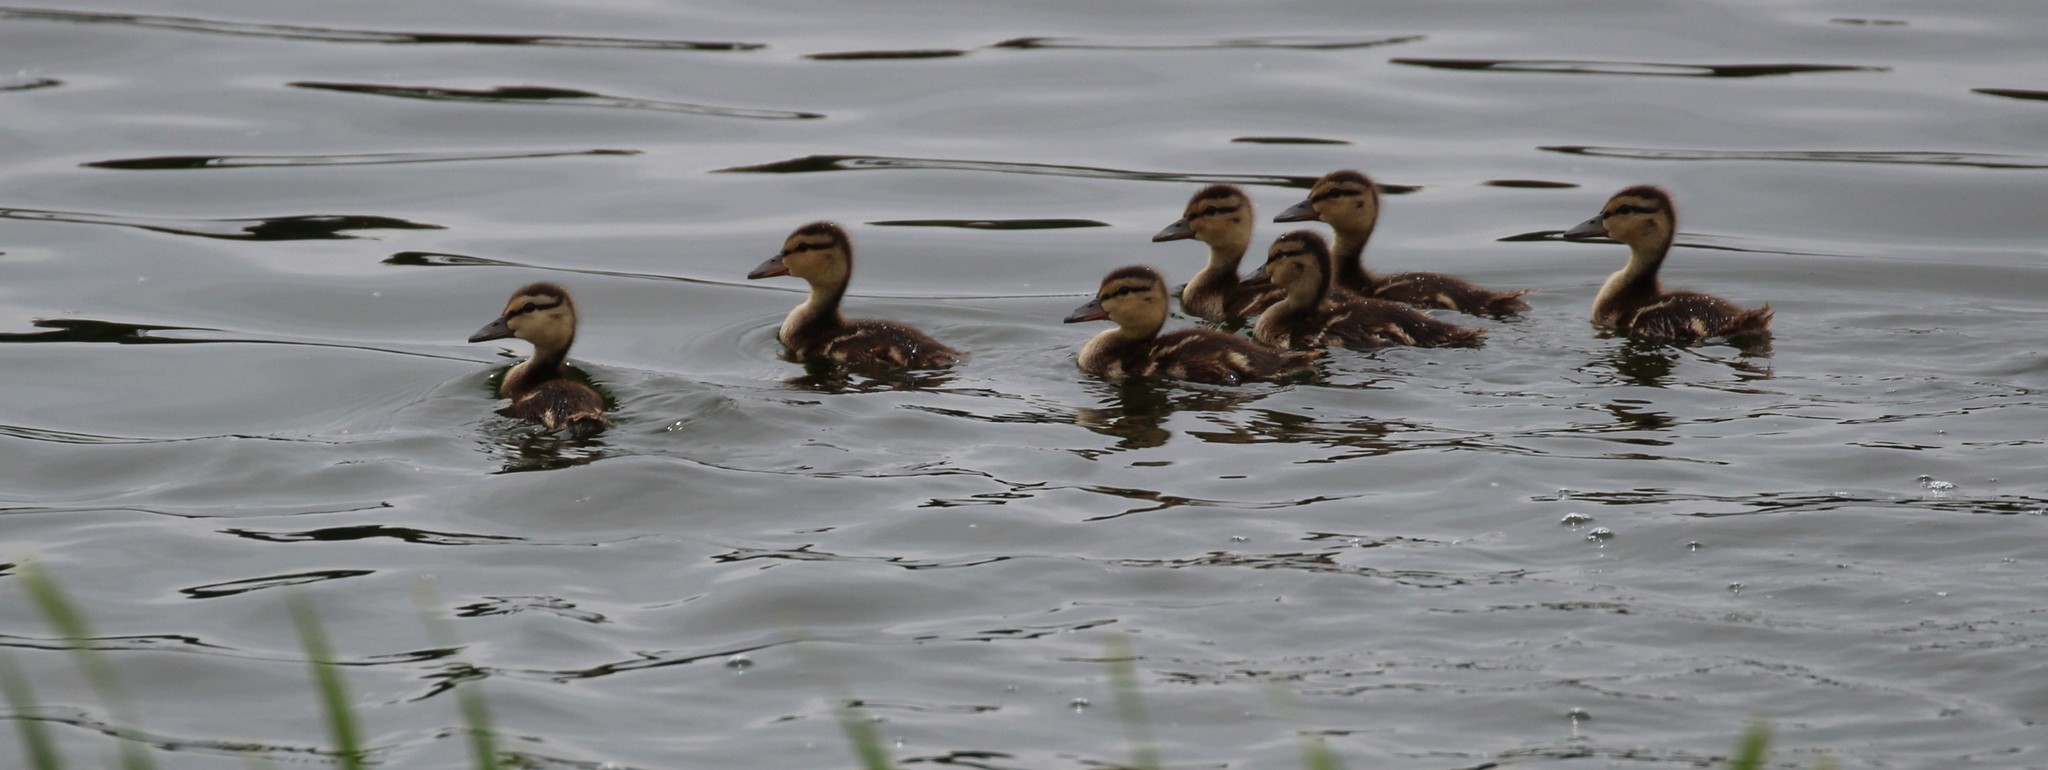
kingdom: Animalia
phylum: Chordata
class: Aves
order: Anseriformes
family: Anatidae
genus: Anas
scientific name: Anas platyrhynchos
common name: Mallard
